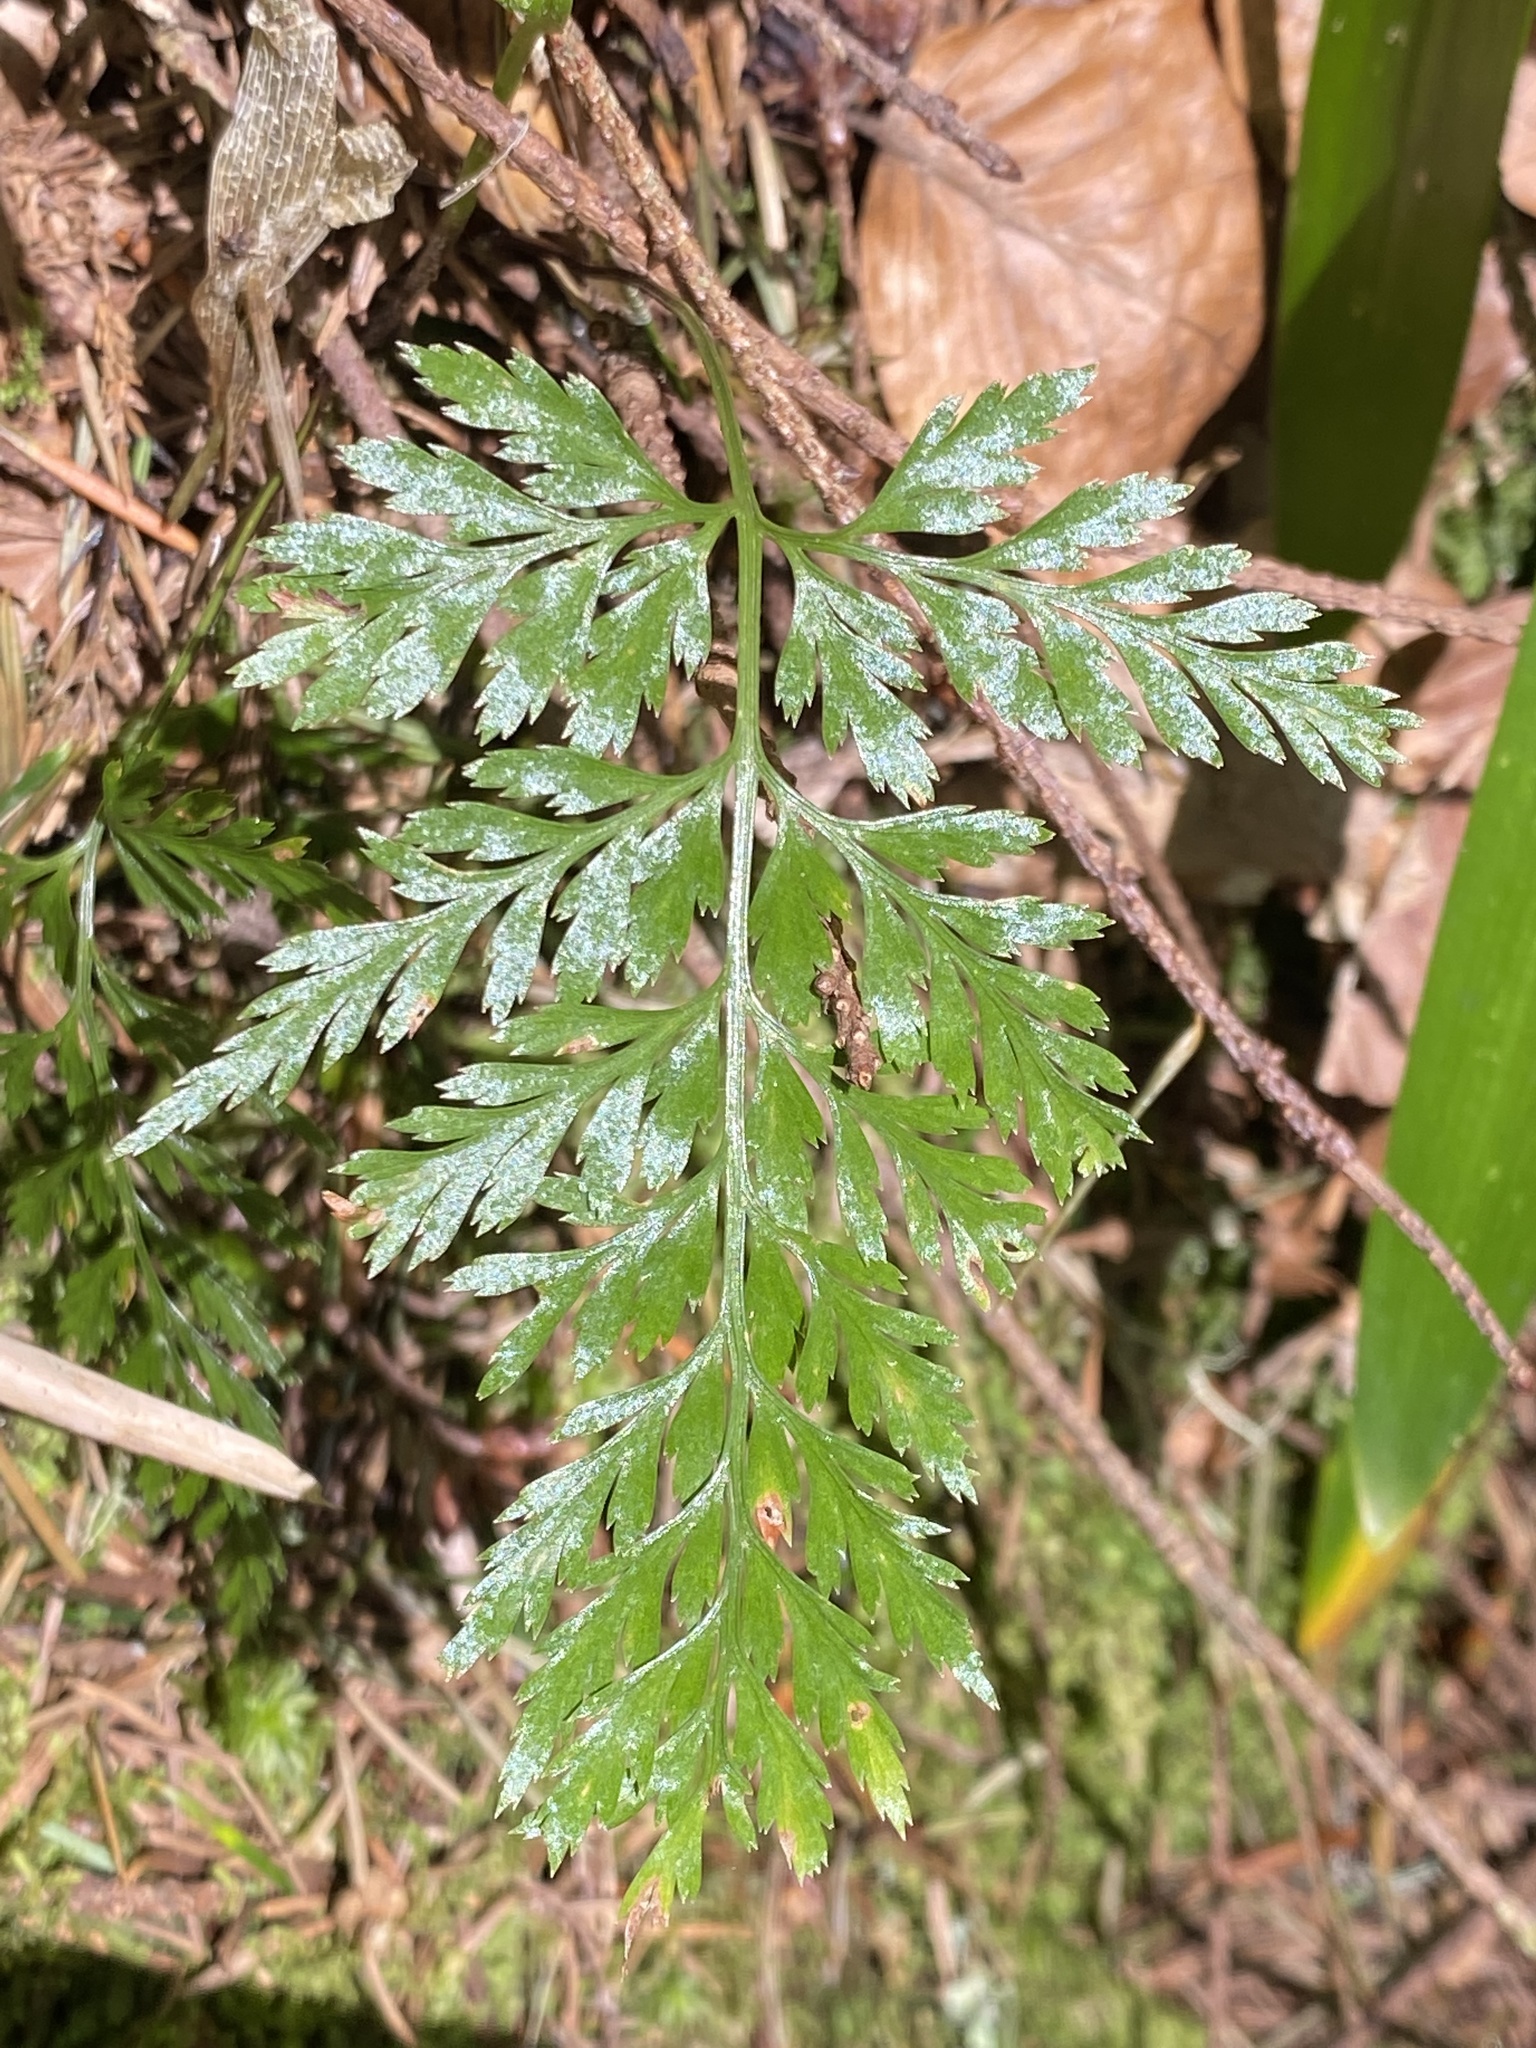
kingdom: Plantae
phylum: Tracheophyta
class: Polypodiopsida
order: Polypodiales
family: Aspleniaceae
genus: Asplenium
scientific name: Asplenium onopteris
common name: Irish spleenwort
